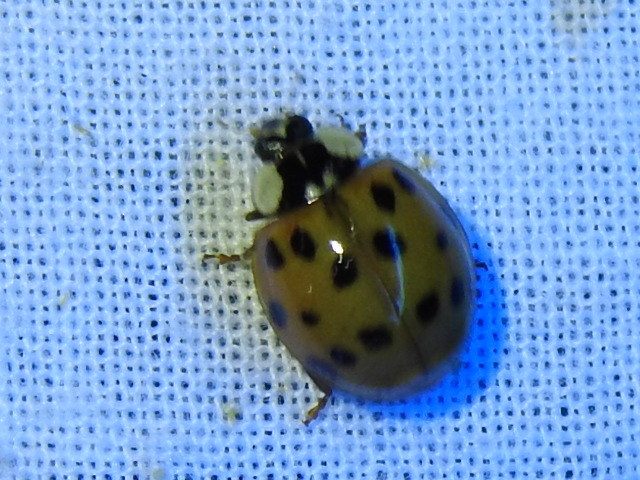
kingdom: Animalia
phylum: Arthropoda
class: Insecta
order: Coleoptera
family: Coccinellidae
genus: Harmonia
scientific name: Harmonia axyridis
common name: Harlequin ladybird
